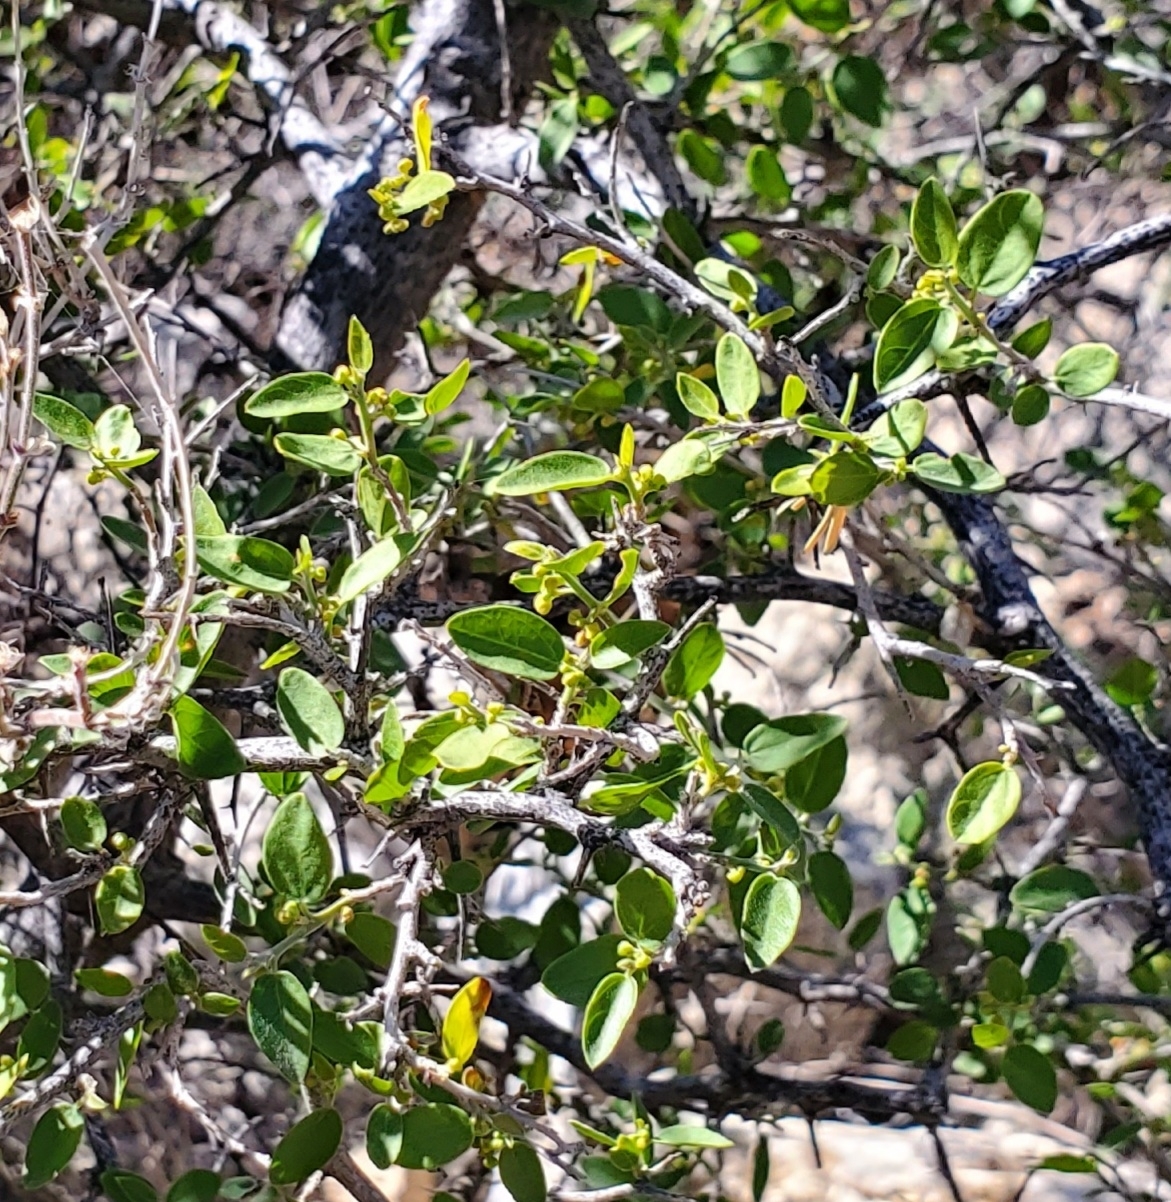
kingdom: Plantae
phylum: Tracheophyta
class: Magnoliopsida
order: Rosales
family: Cannabaceae
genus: Celtis
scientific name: Celtis pallida
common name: Desert hackberry
